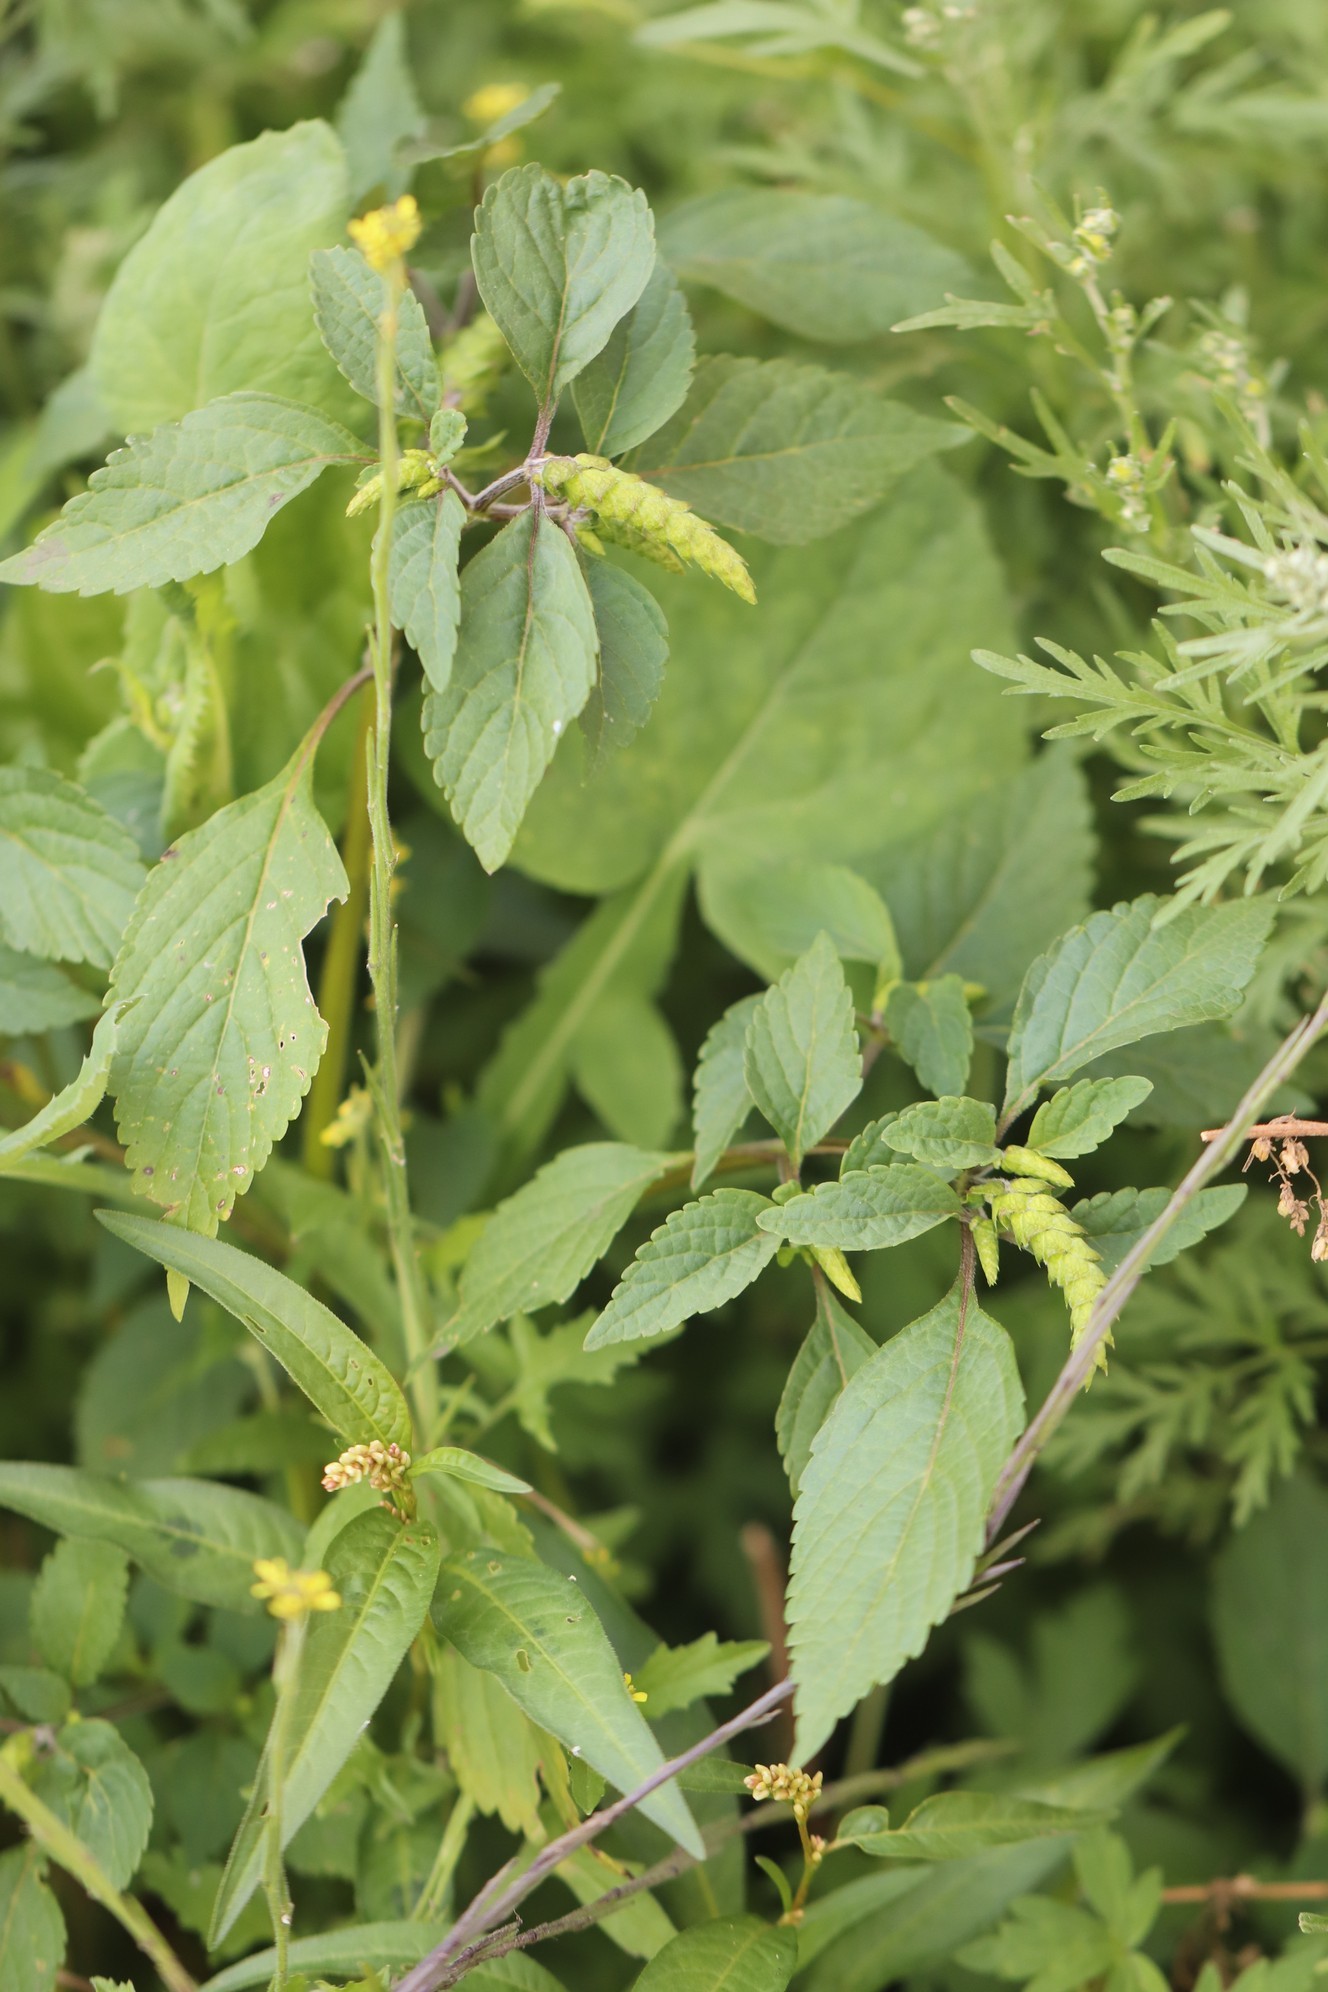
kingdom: Plantae
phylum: Tracheophyta
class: Magnoliopsida
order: Lamiales
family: Lamiaceae
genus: Elsholtzia
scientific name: Elsholtzia ciliata
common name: Ciliate elsholtzia
